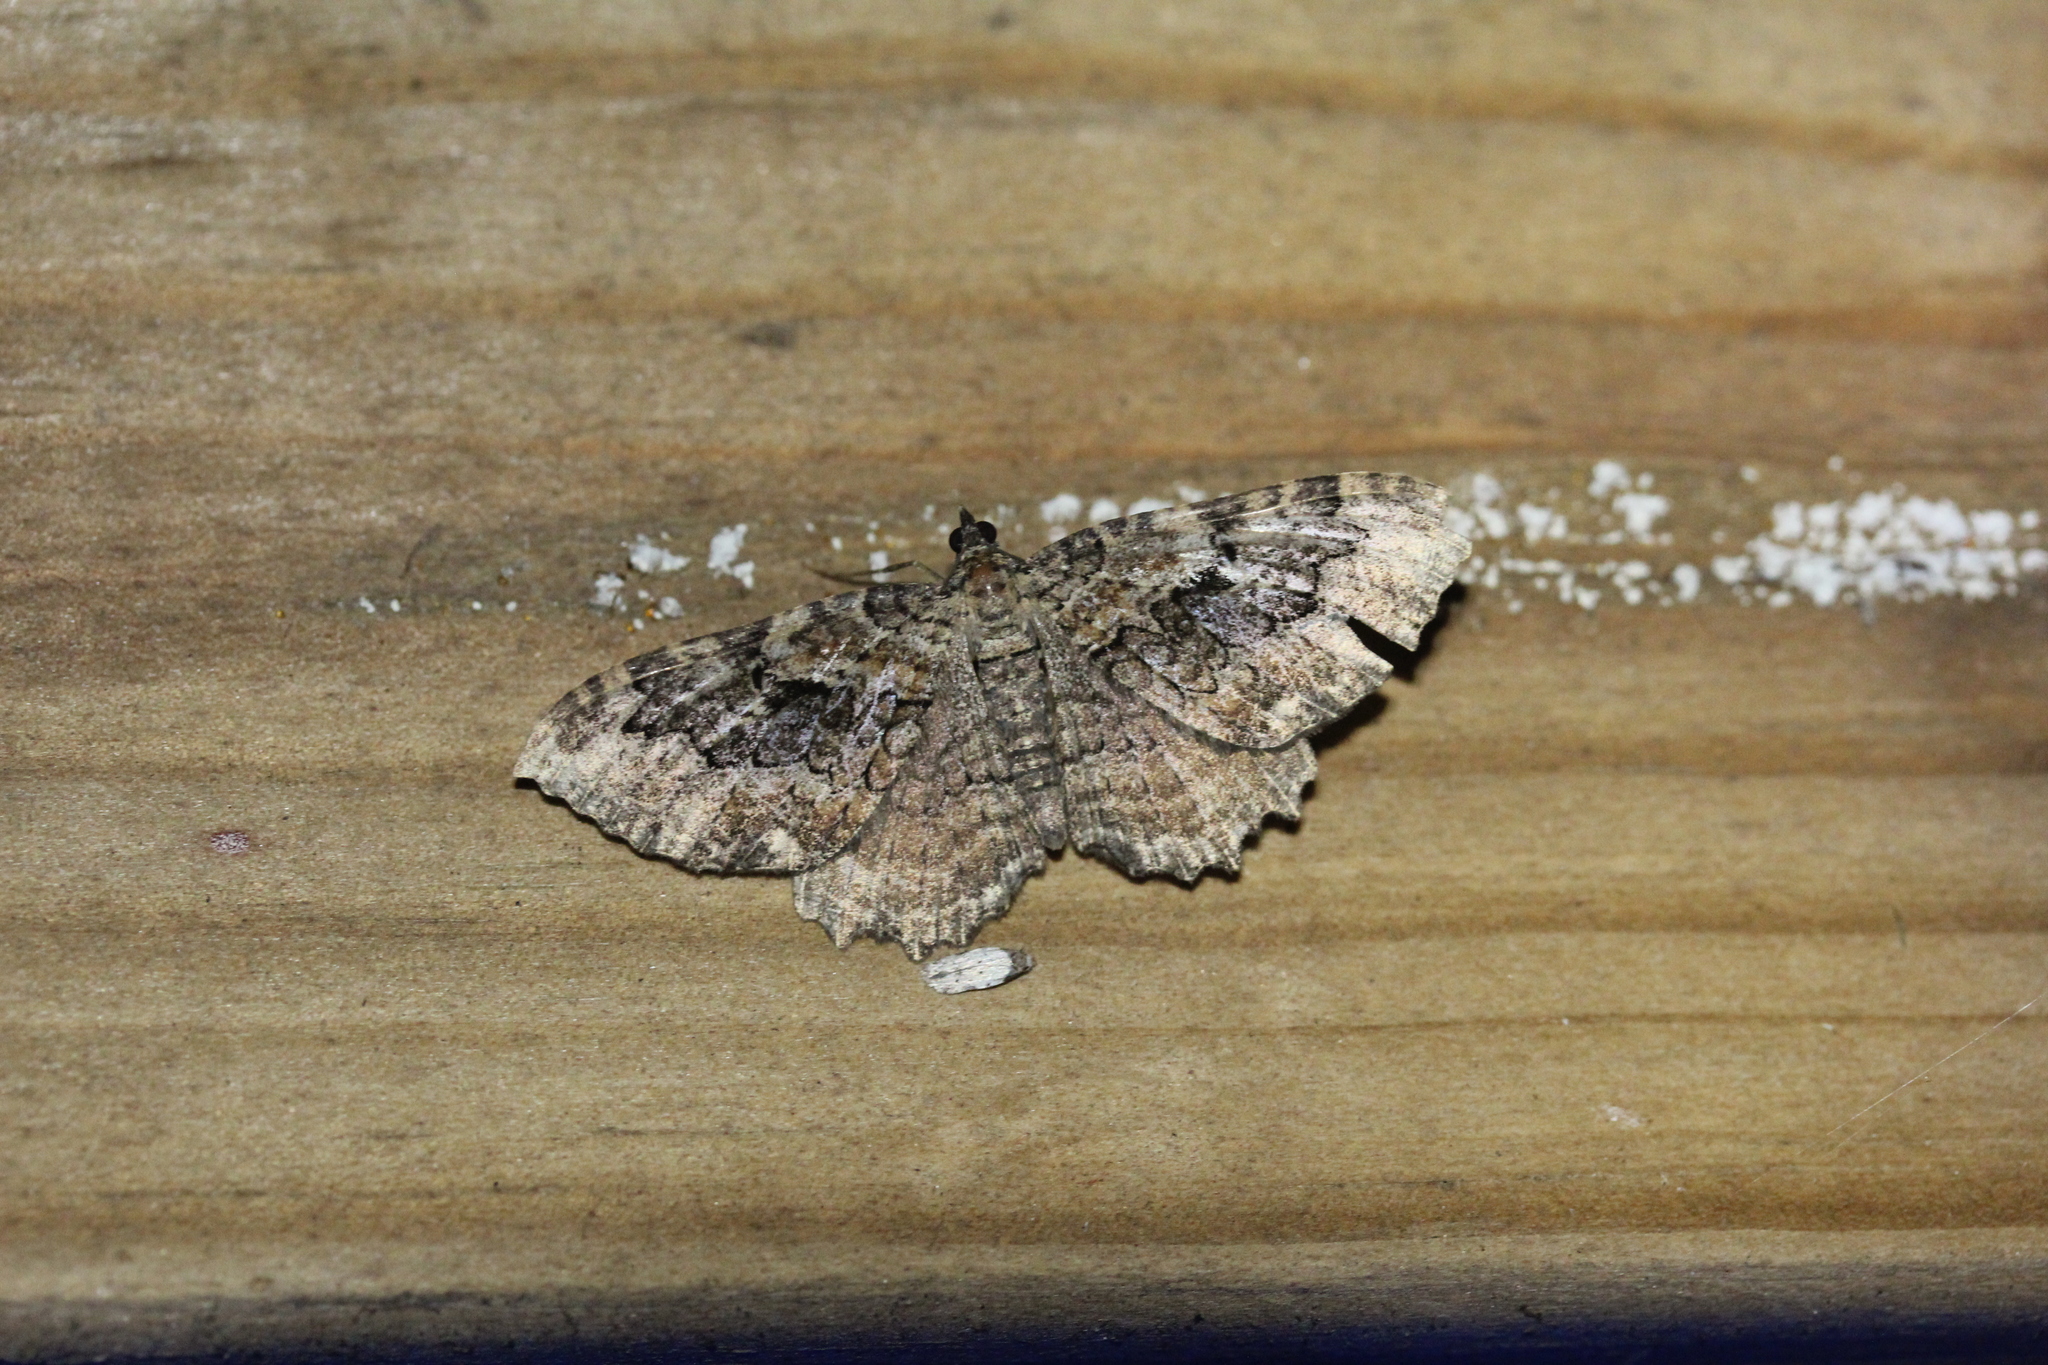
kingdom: Animalia
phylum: Arthropoda
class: Insecta
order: Lepidoptera
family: Geometridae
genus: Rheumaptera
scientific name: Rheumaptera
